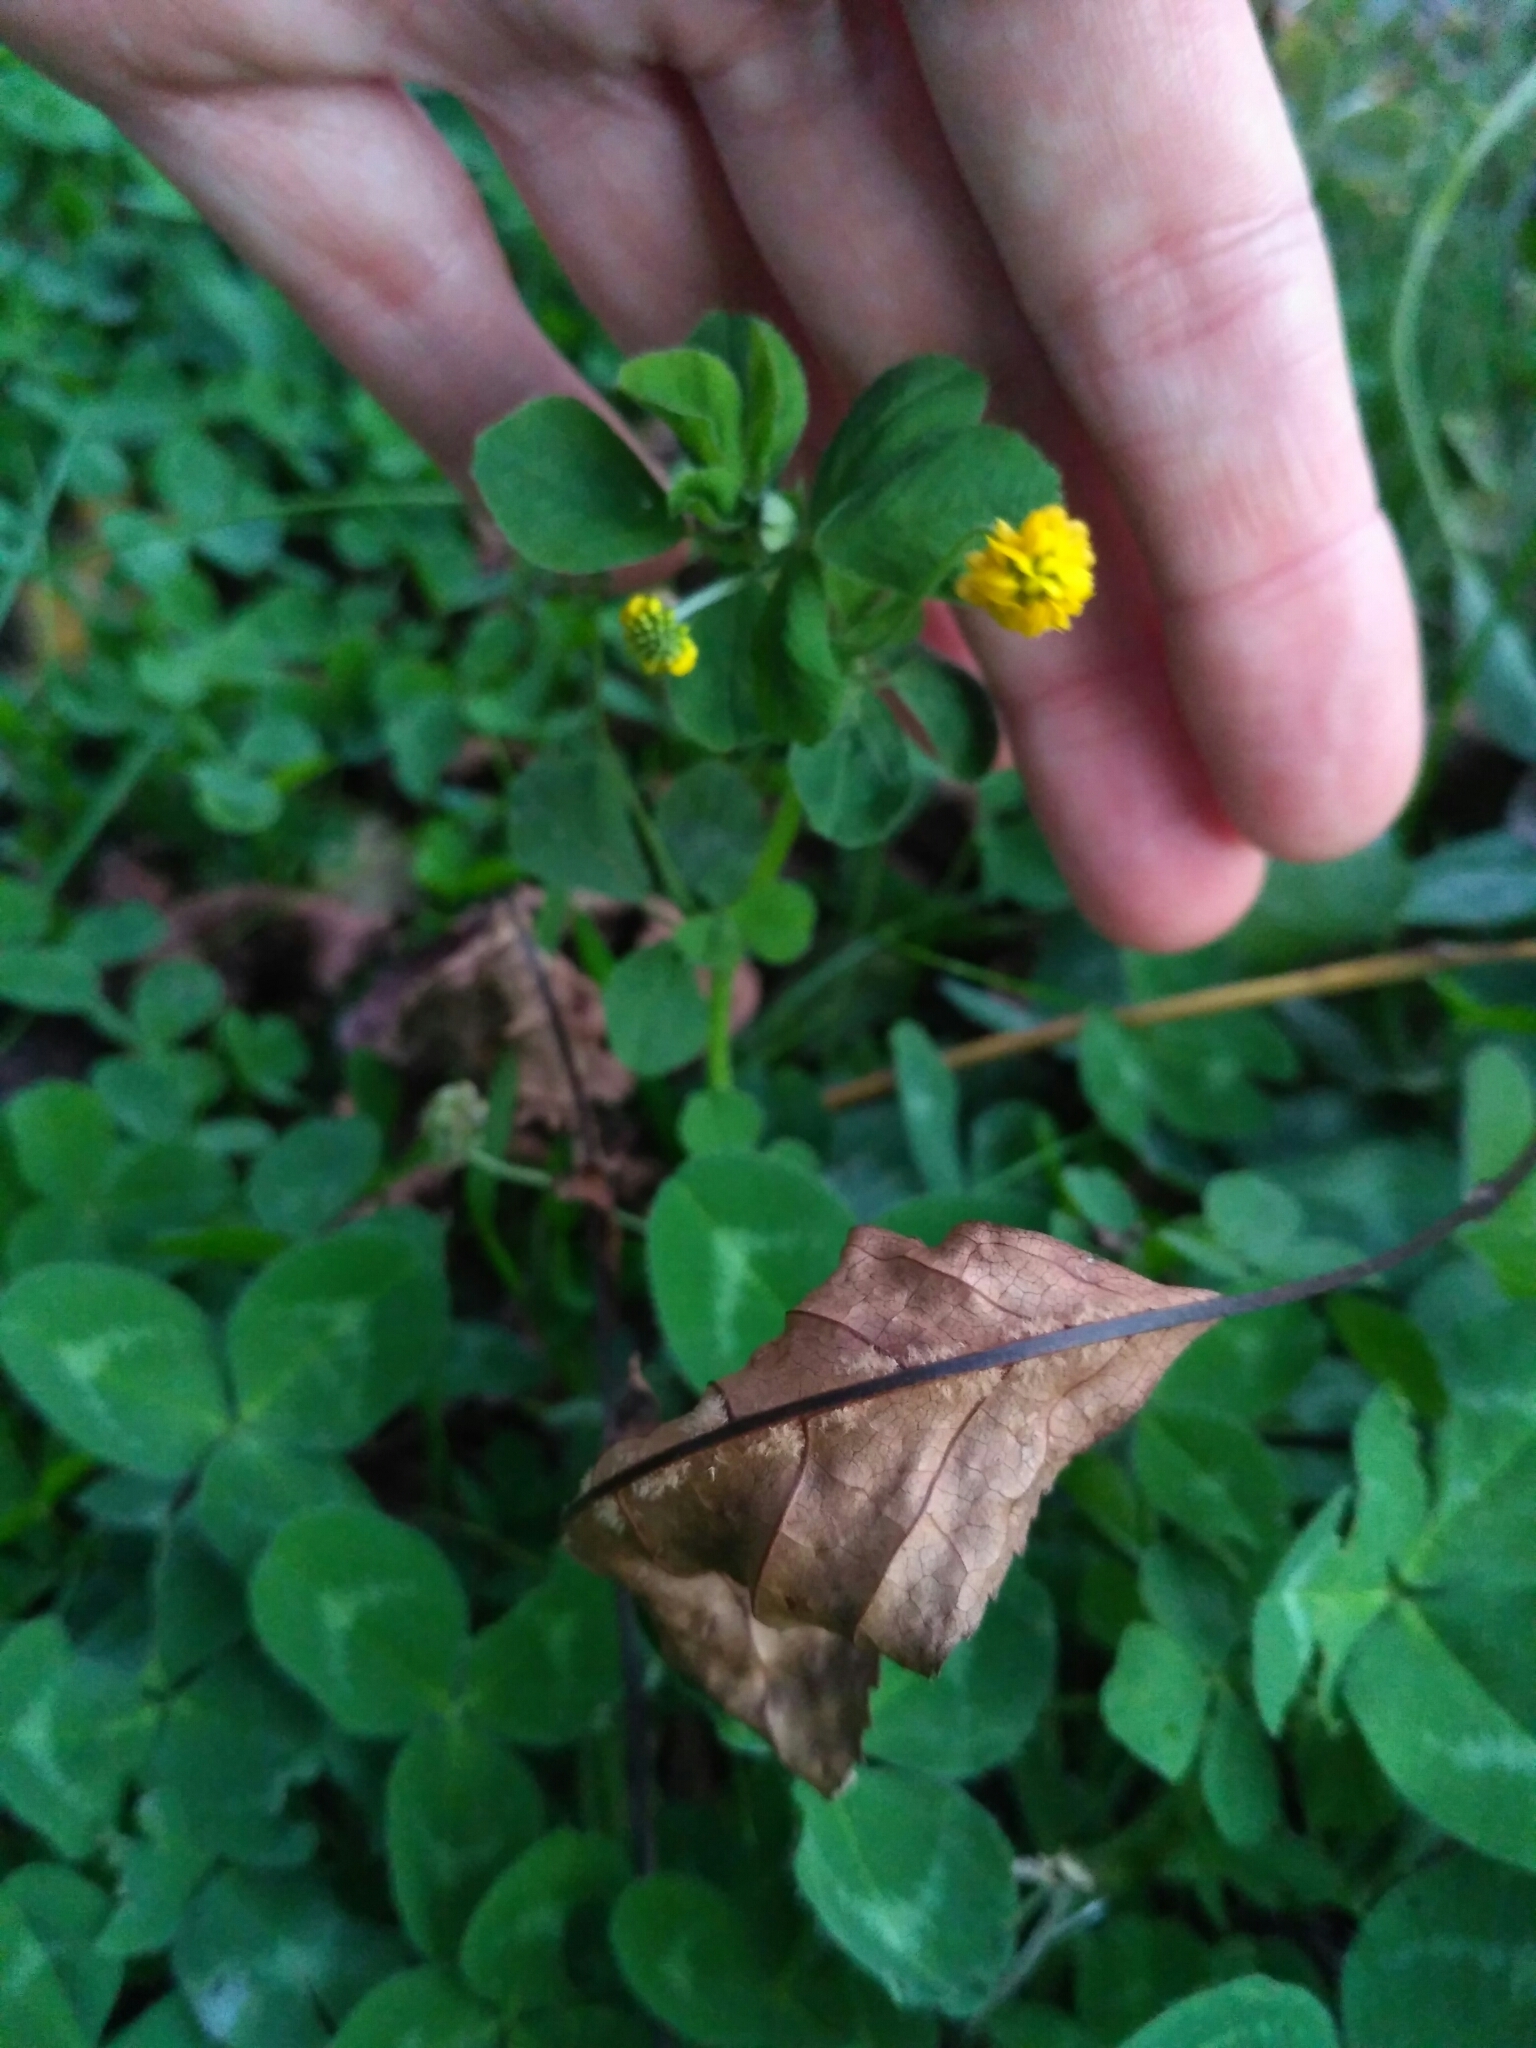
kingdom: Plantae
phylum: Tracheophyta
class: Magnoliopsida
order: Fabales
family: Fabaceae
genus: Medicago
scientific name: Medicago lupulina
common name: Black medick
